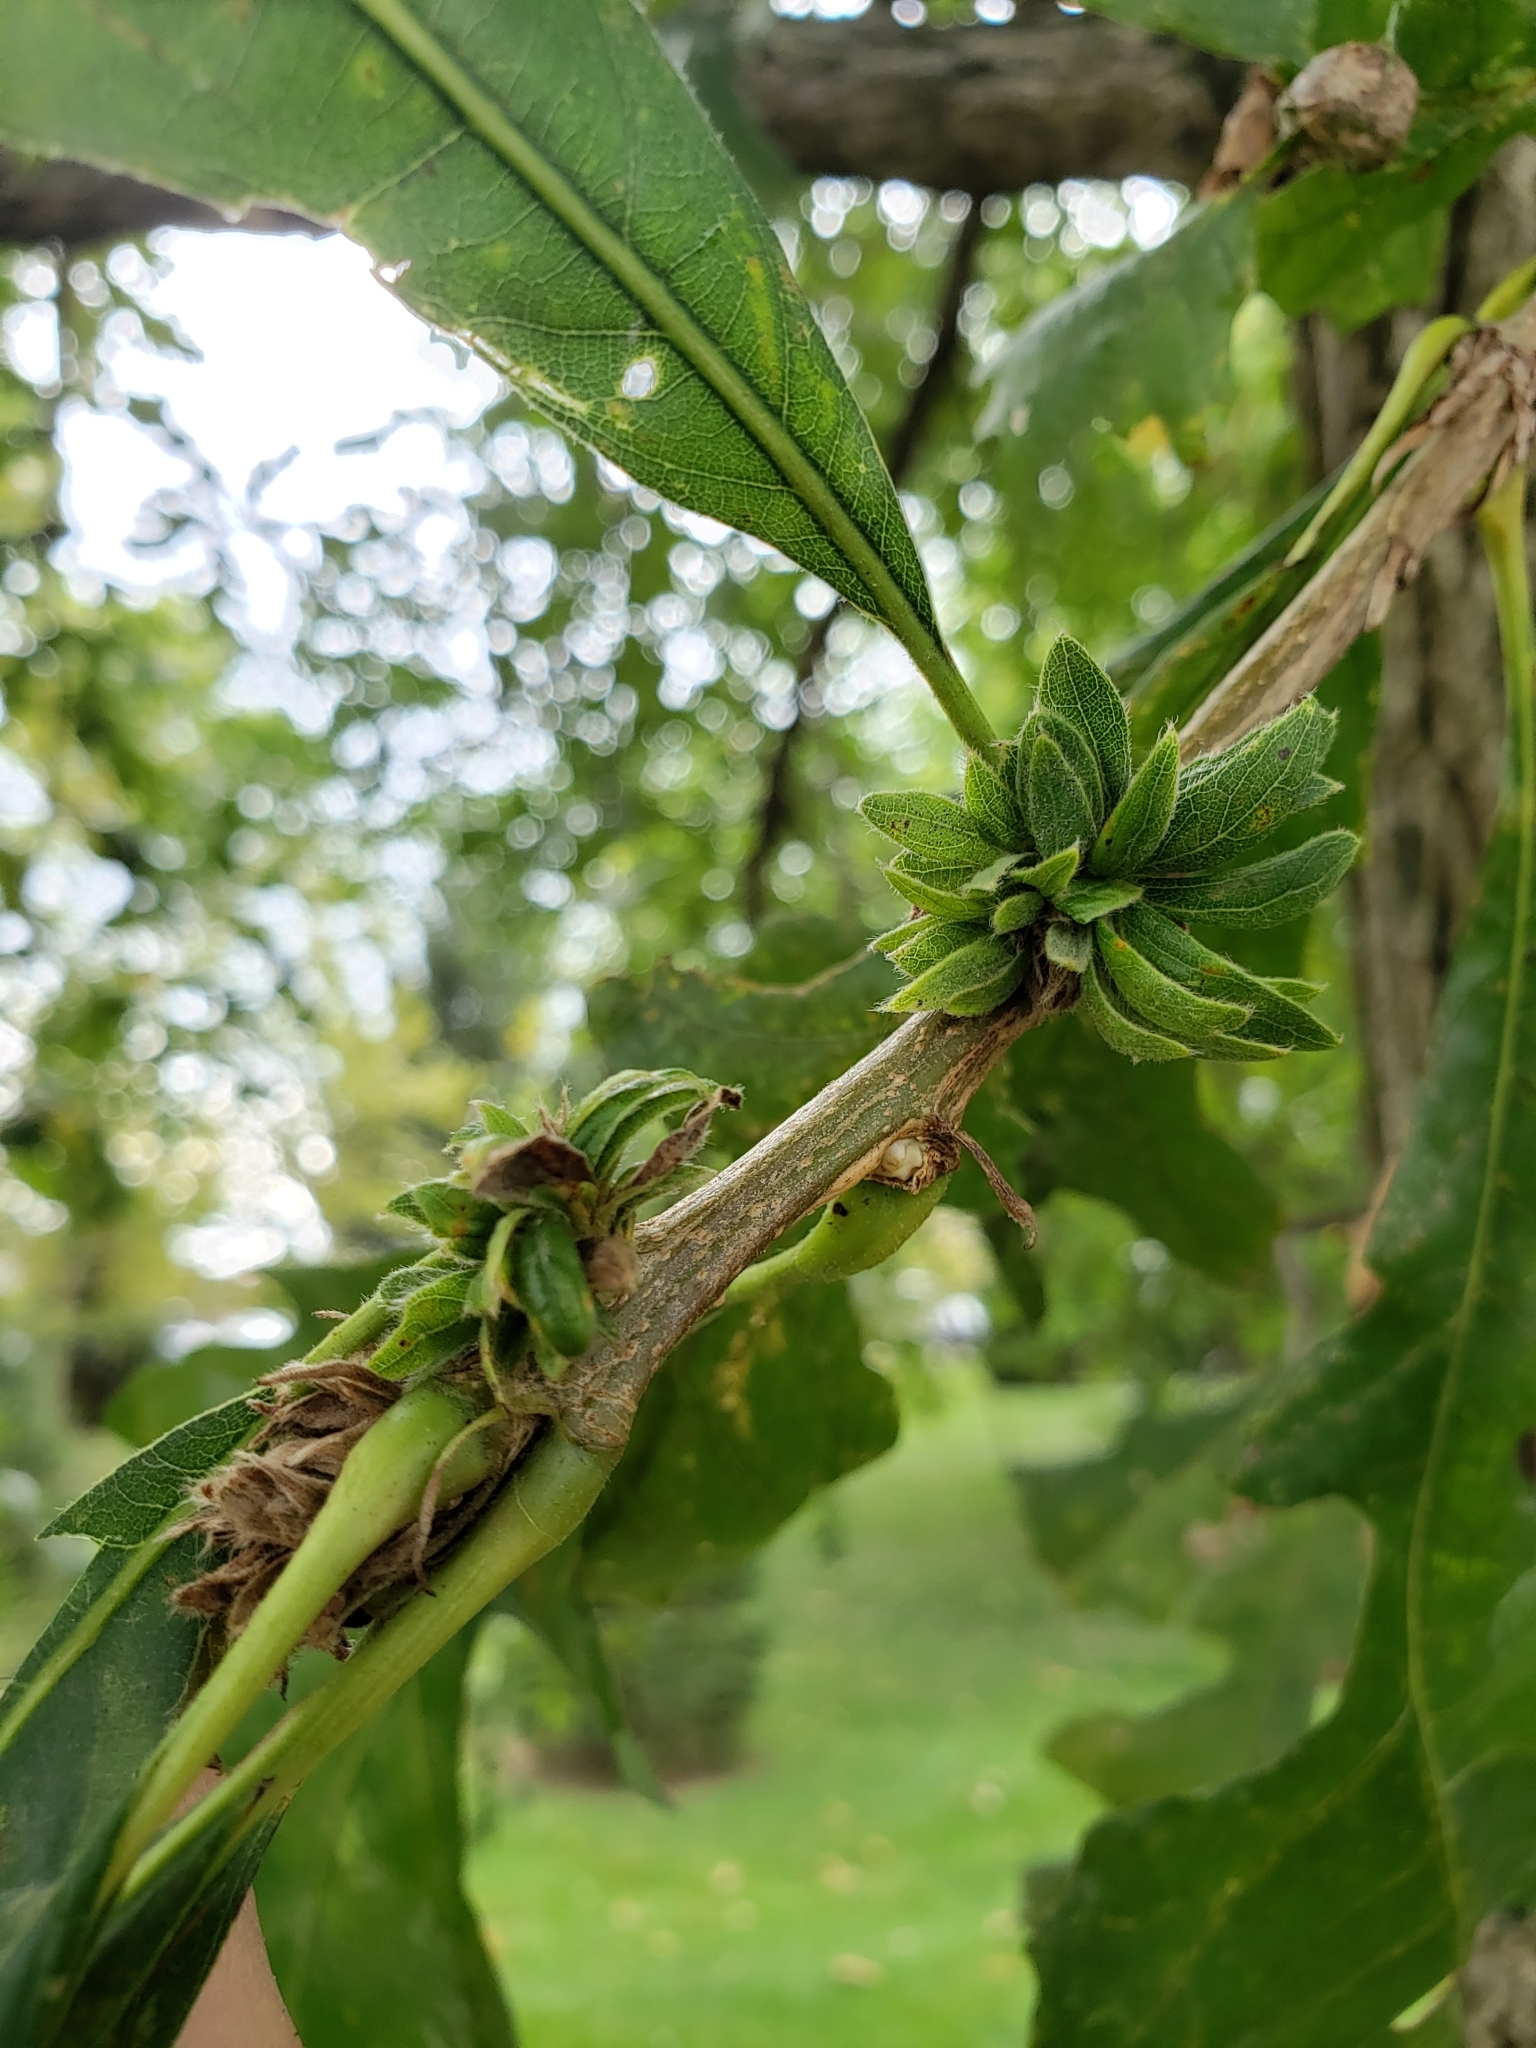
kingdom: Animalia
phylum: Arthropoda
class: Insecta
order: Hymenoptera
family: Cynipidae
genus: Andricus
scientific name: Andricus
